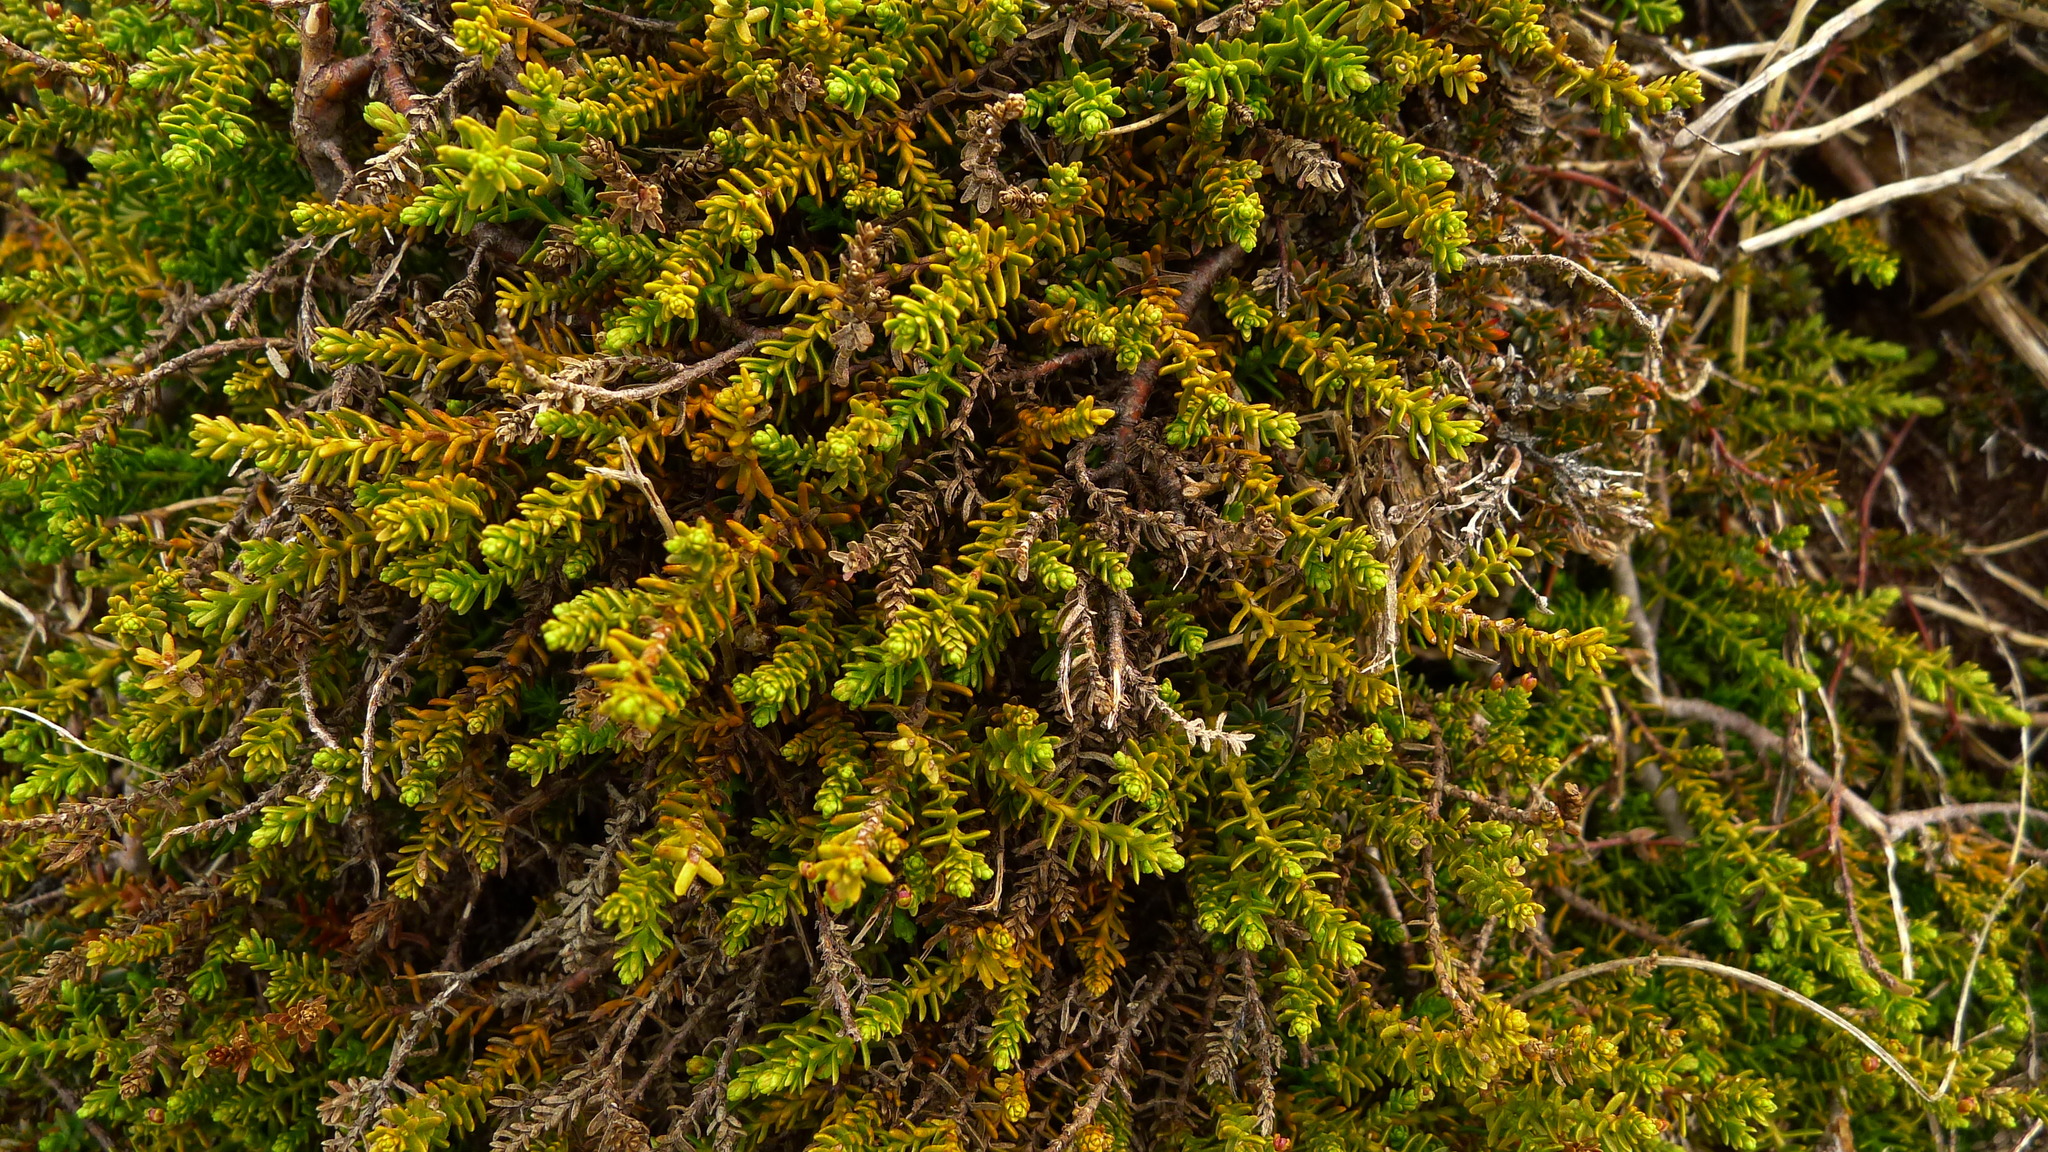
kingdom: Plantae
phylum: Tracheophyta
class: Pinopsida
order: Pinales
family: Podocarpaceae
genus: Lepidothamnus
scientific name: Lepidothamnus laxifolius
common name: Pygmy pine
